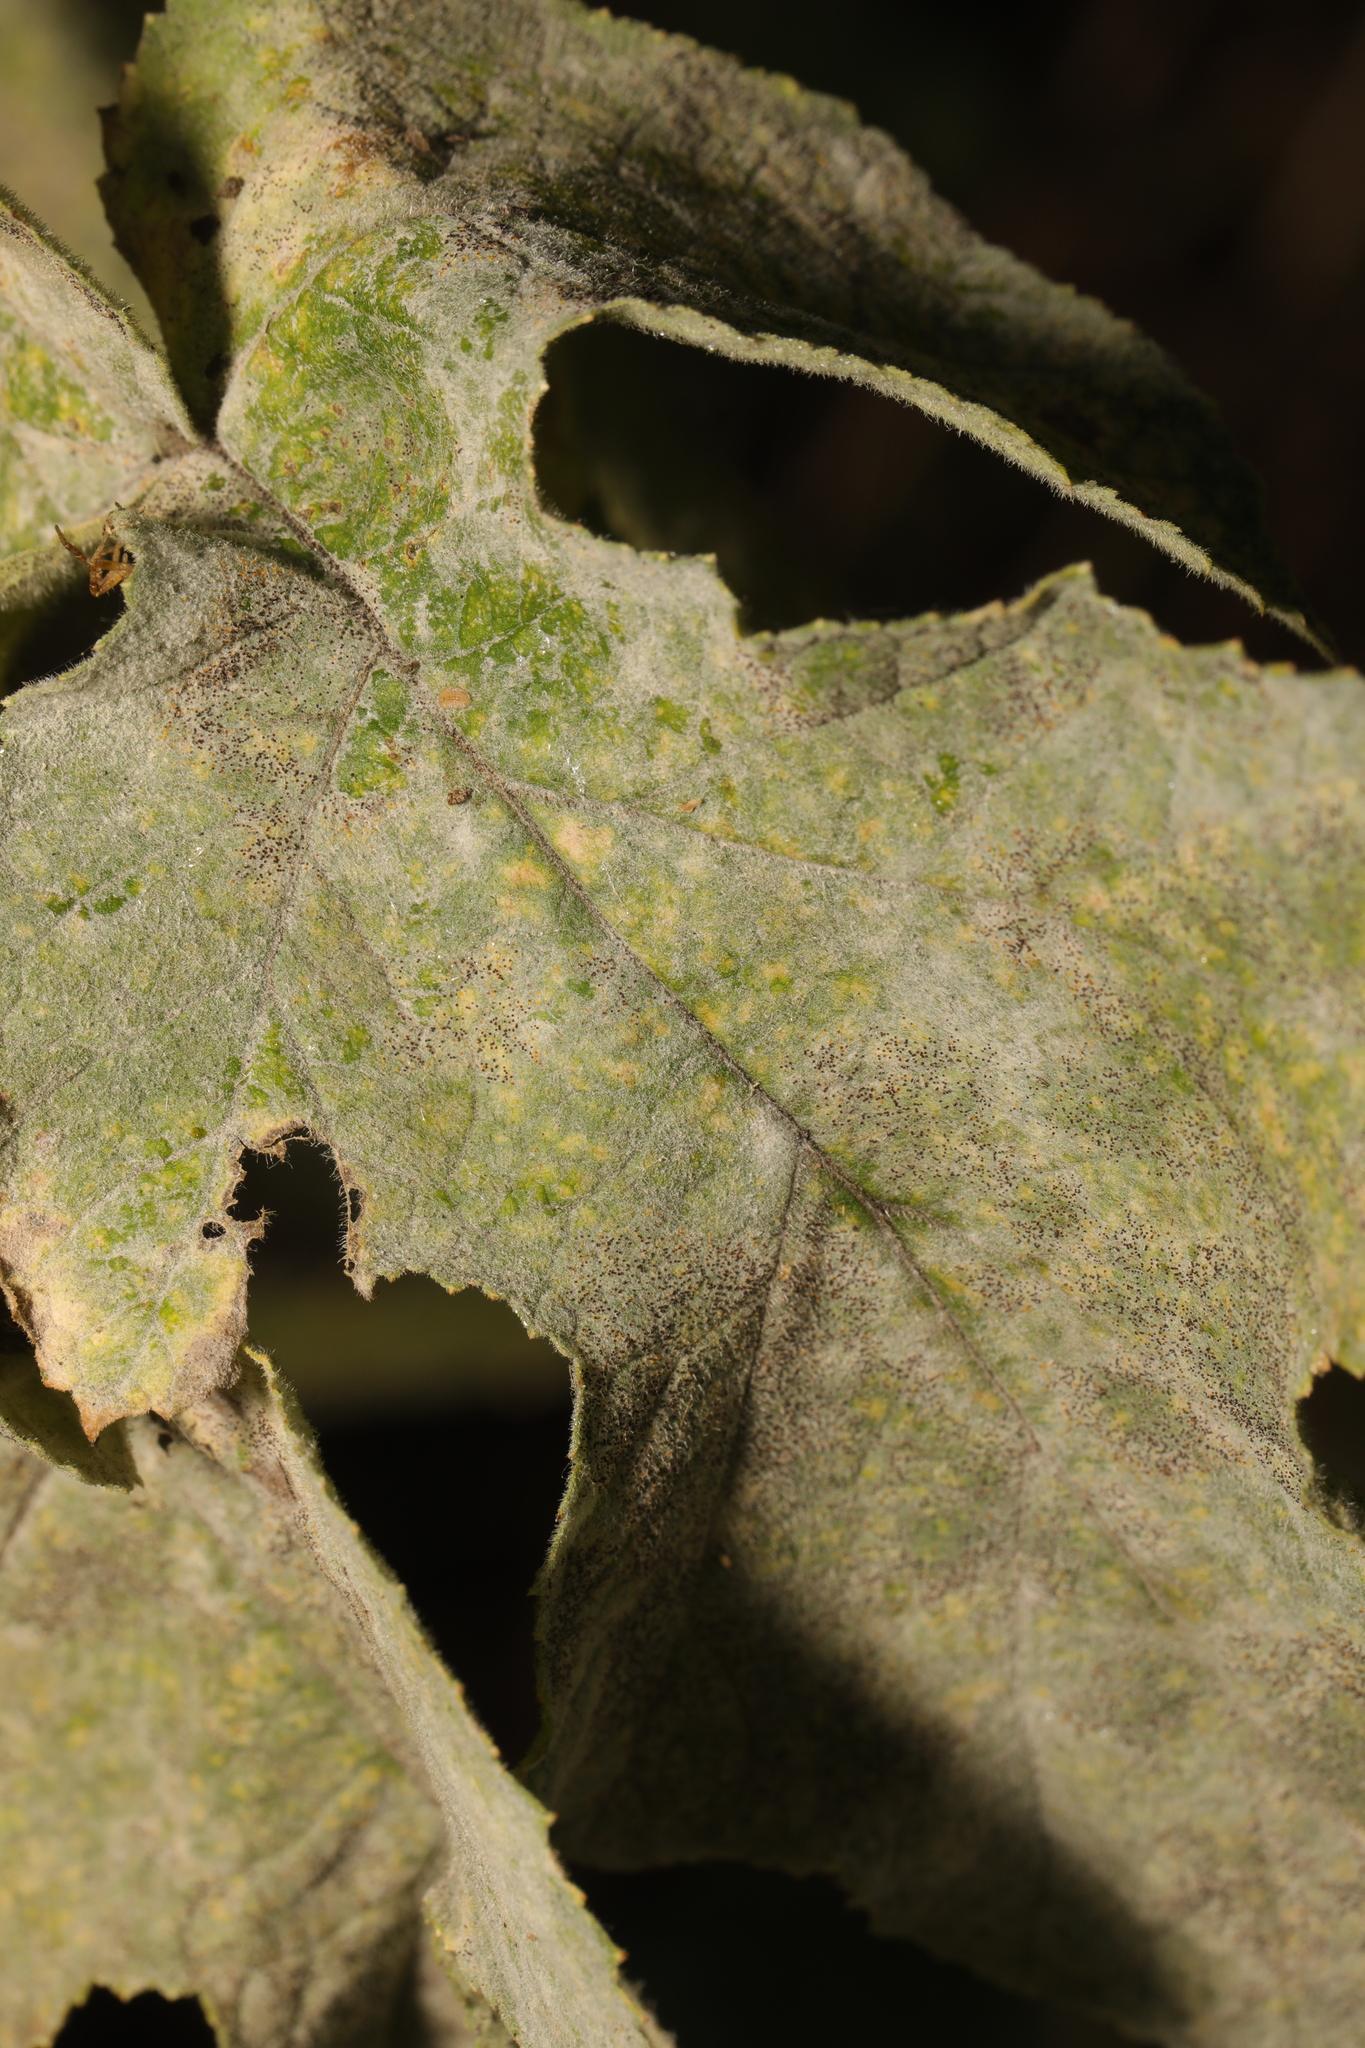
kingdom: Fungi
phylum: Ascomycota
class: Leotiomycetes
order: Helotiales
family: Erysiphaceae
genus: Erysiphe
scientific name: Erysiphe heraclei
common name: Umbellifer mildew
